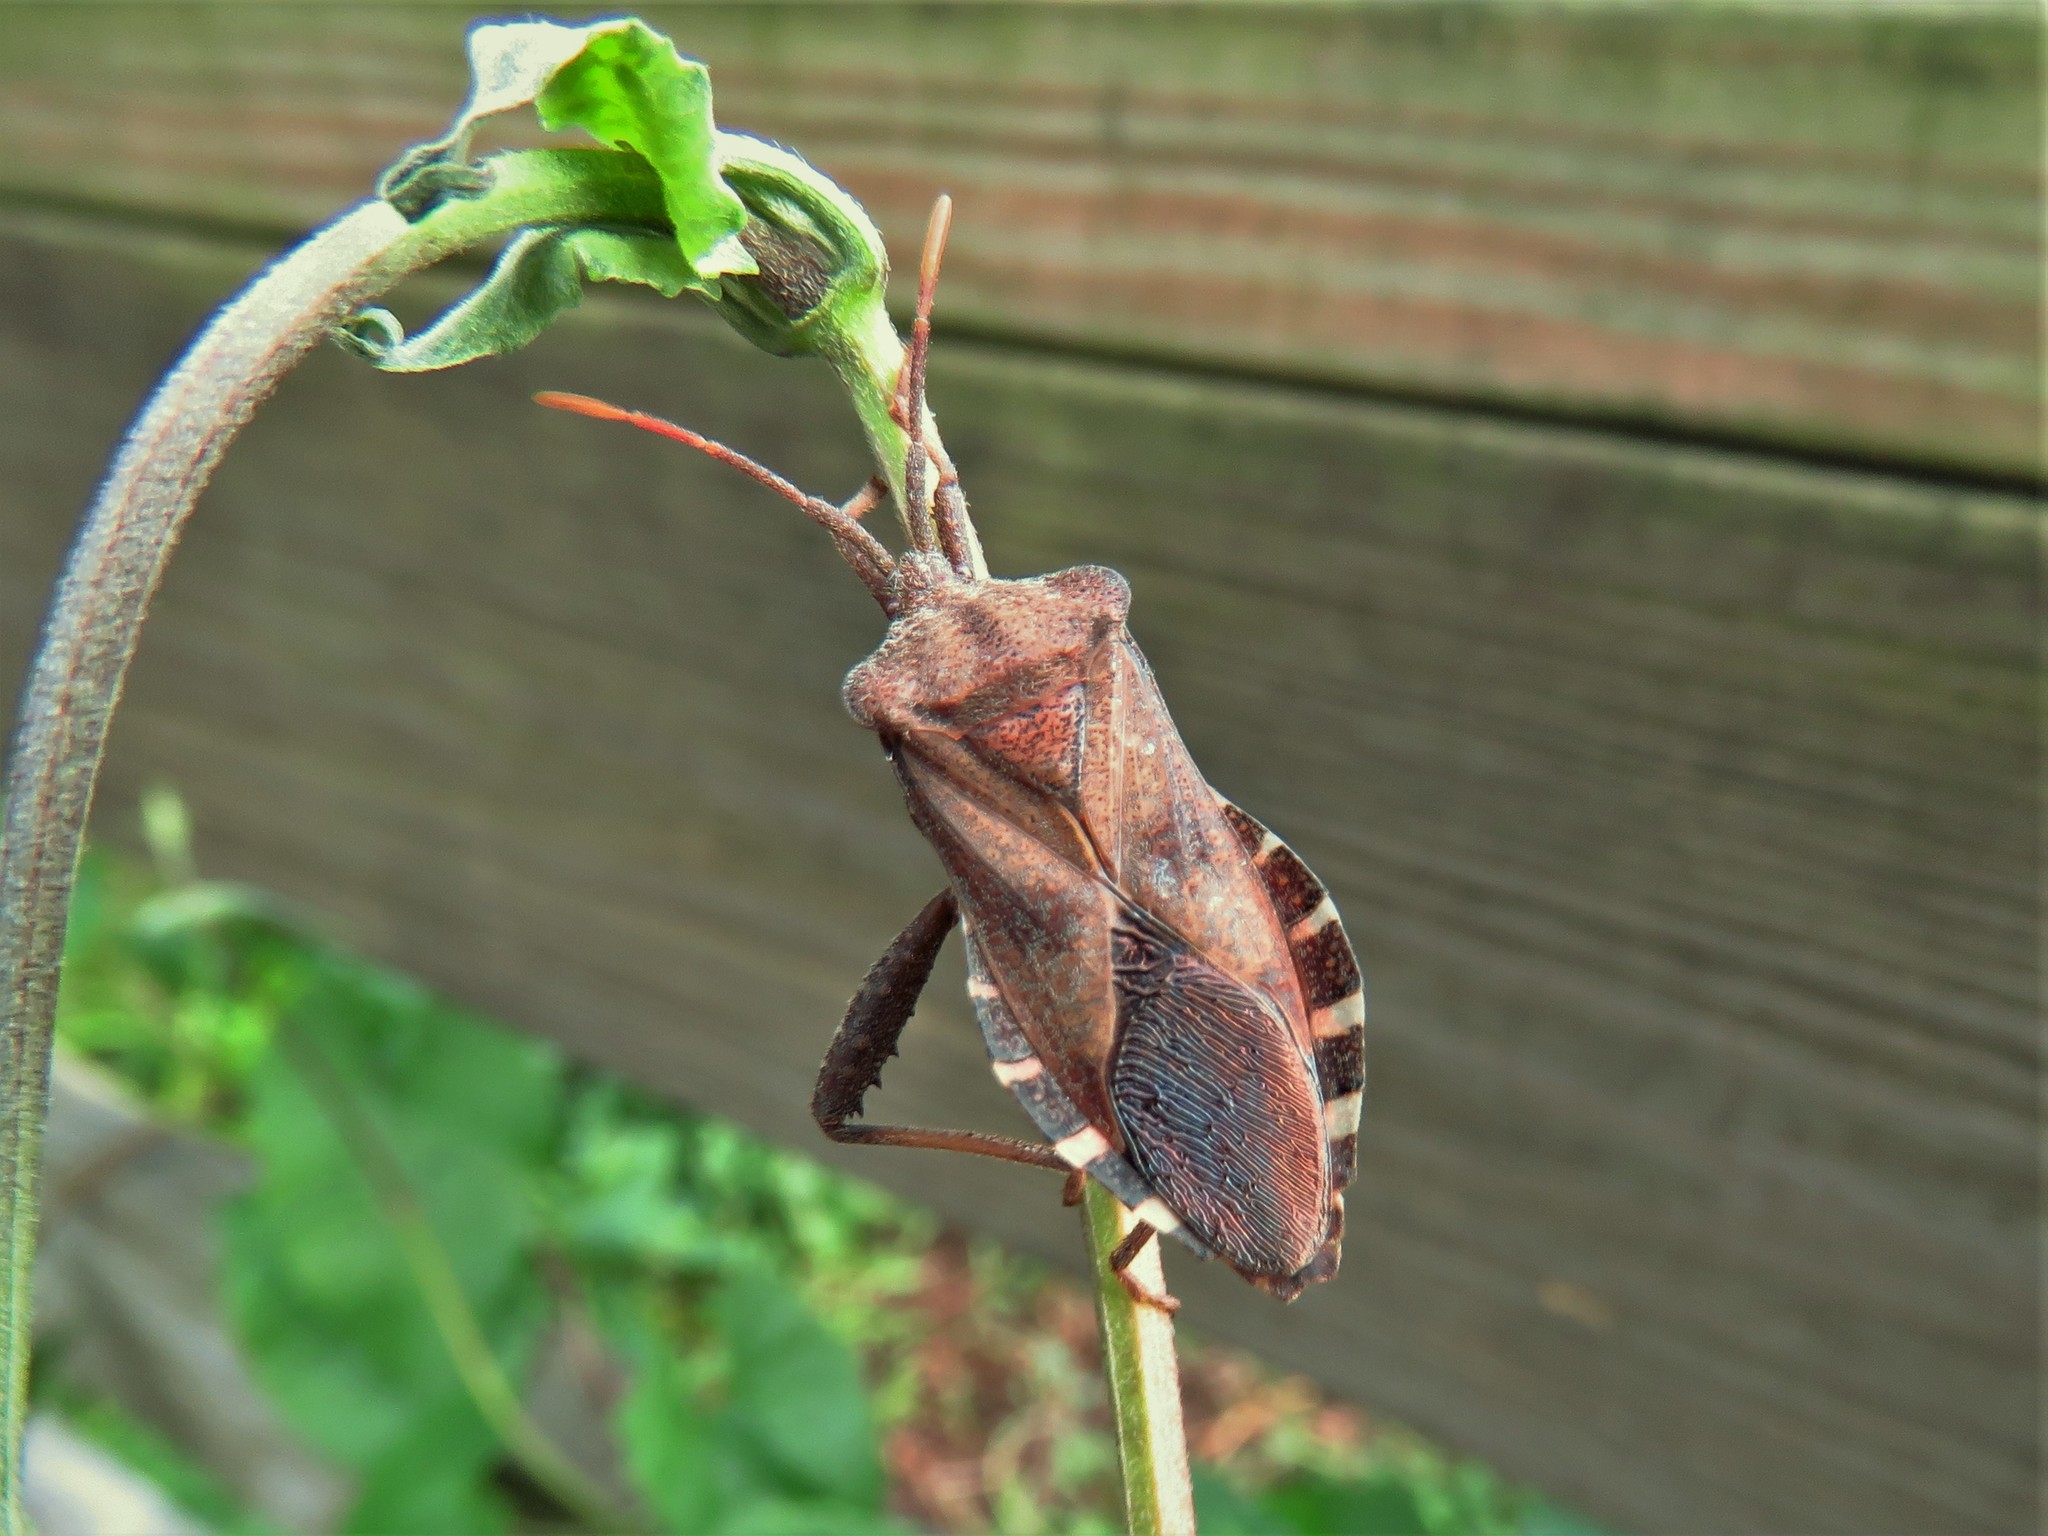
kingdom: Animalia
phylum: Arthropoda
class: Insecta
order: Hemiptera
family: Coreidae
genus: Piezogaster
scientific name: Piezogaster calcarator
